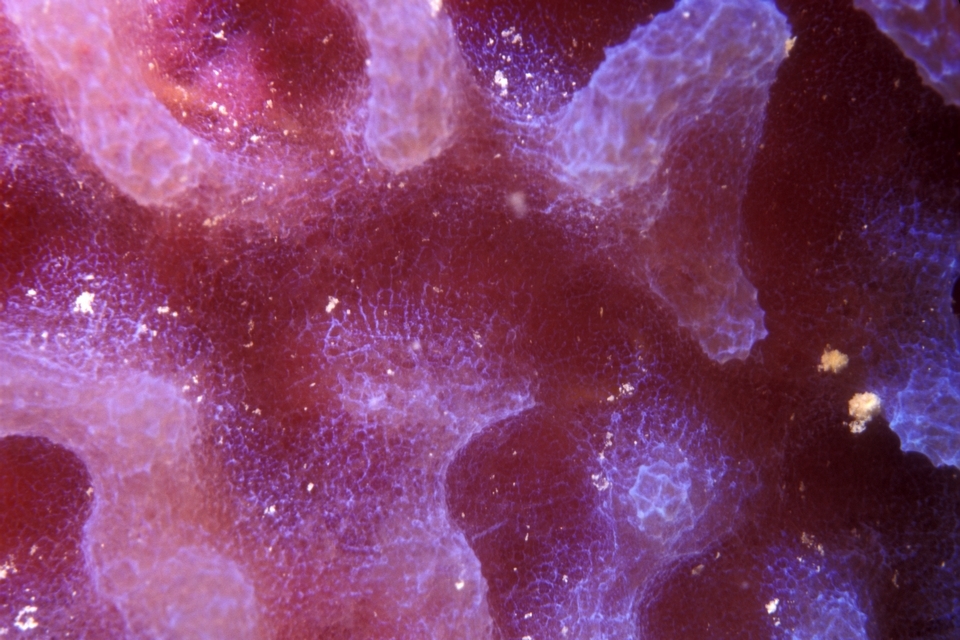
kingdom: Animalia
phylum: Porifera
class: Demospongiae
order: Haplosclerida
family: Callyspongiidae
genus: Callyspongia
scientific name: Callyspongia plicifera
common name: Azure vase sponge
